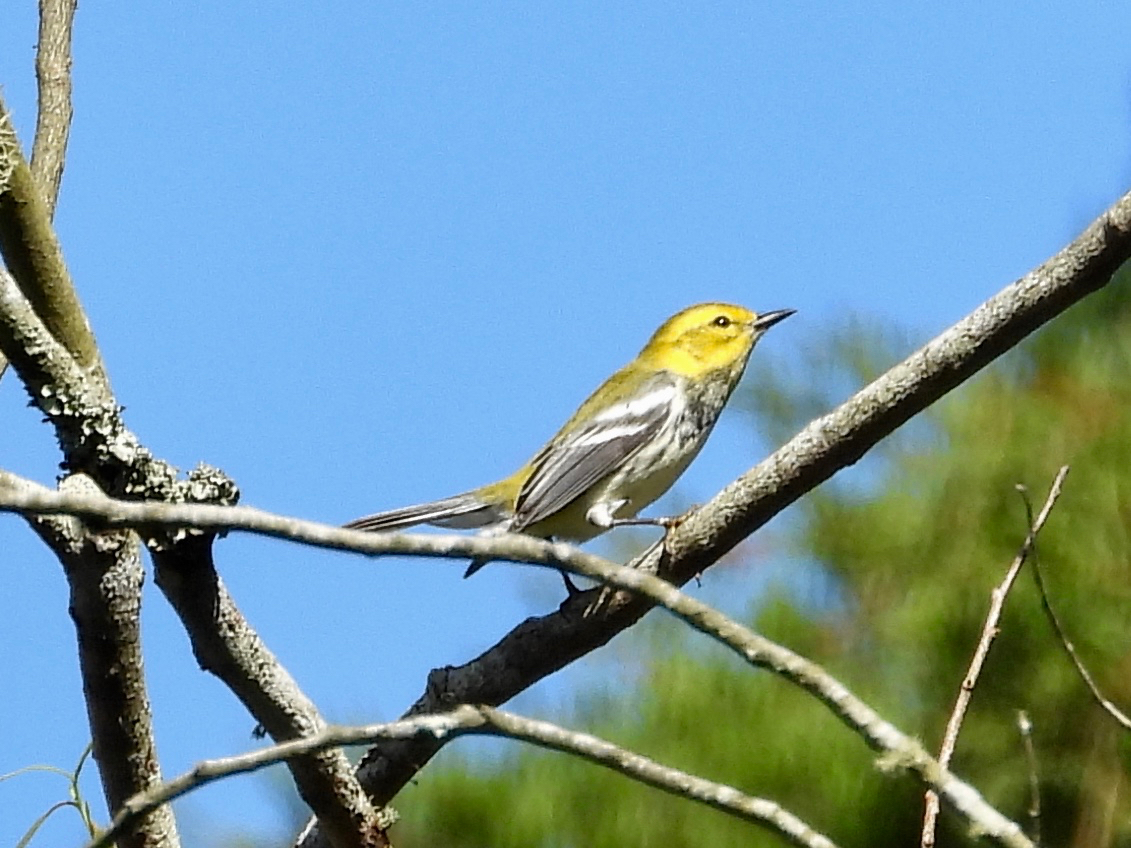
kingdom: Animalia
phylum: Chordata
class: Aves
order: Passeriformes
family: Parulidae
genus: Setophaga
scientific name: Setophaga virens
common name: Black-throated green warbler
